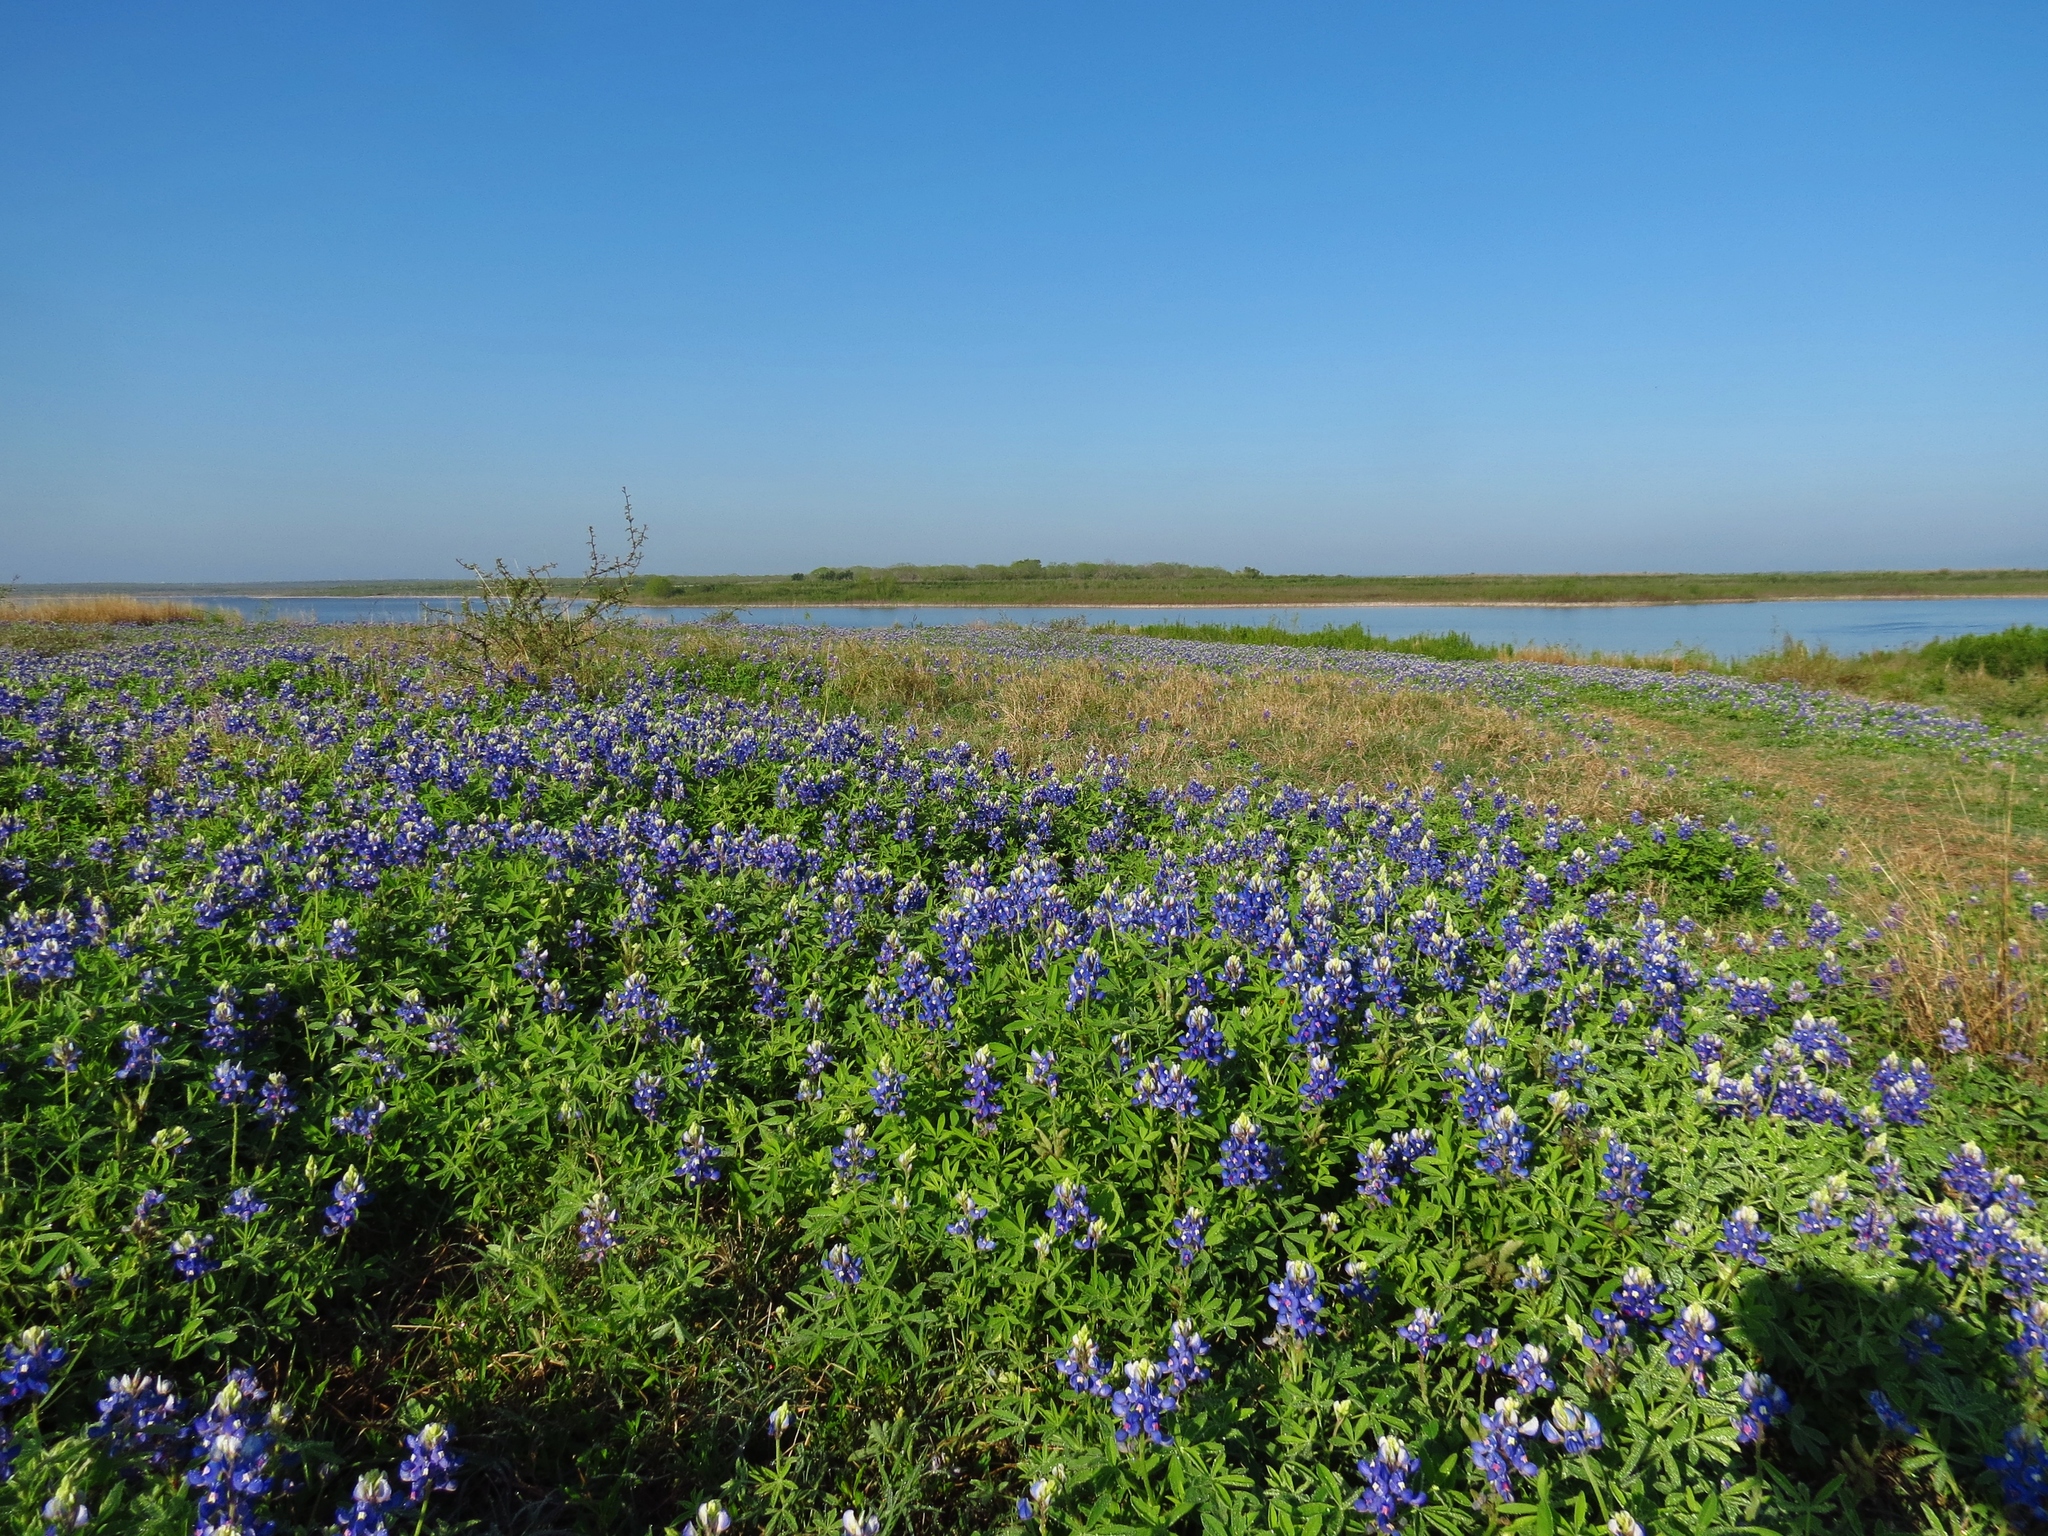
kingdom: Plantae
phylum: Tracheophyta
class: Magnoliopsida
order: Fabales
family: Fabaceae
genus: Lupinus
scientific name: Lupinus texensis
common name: Texas bluebonnet
